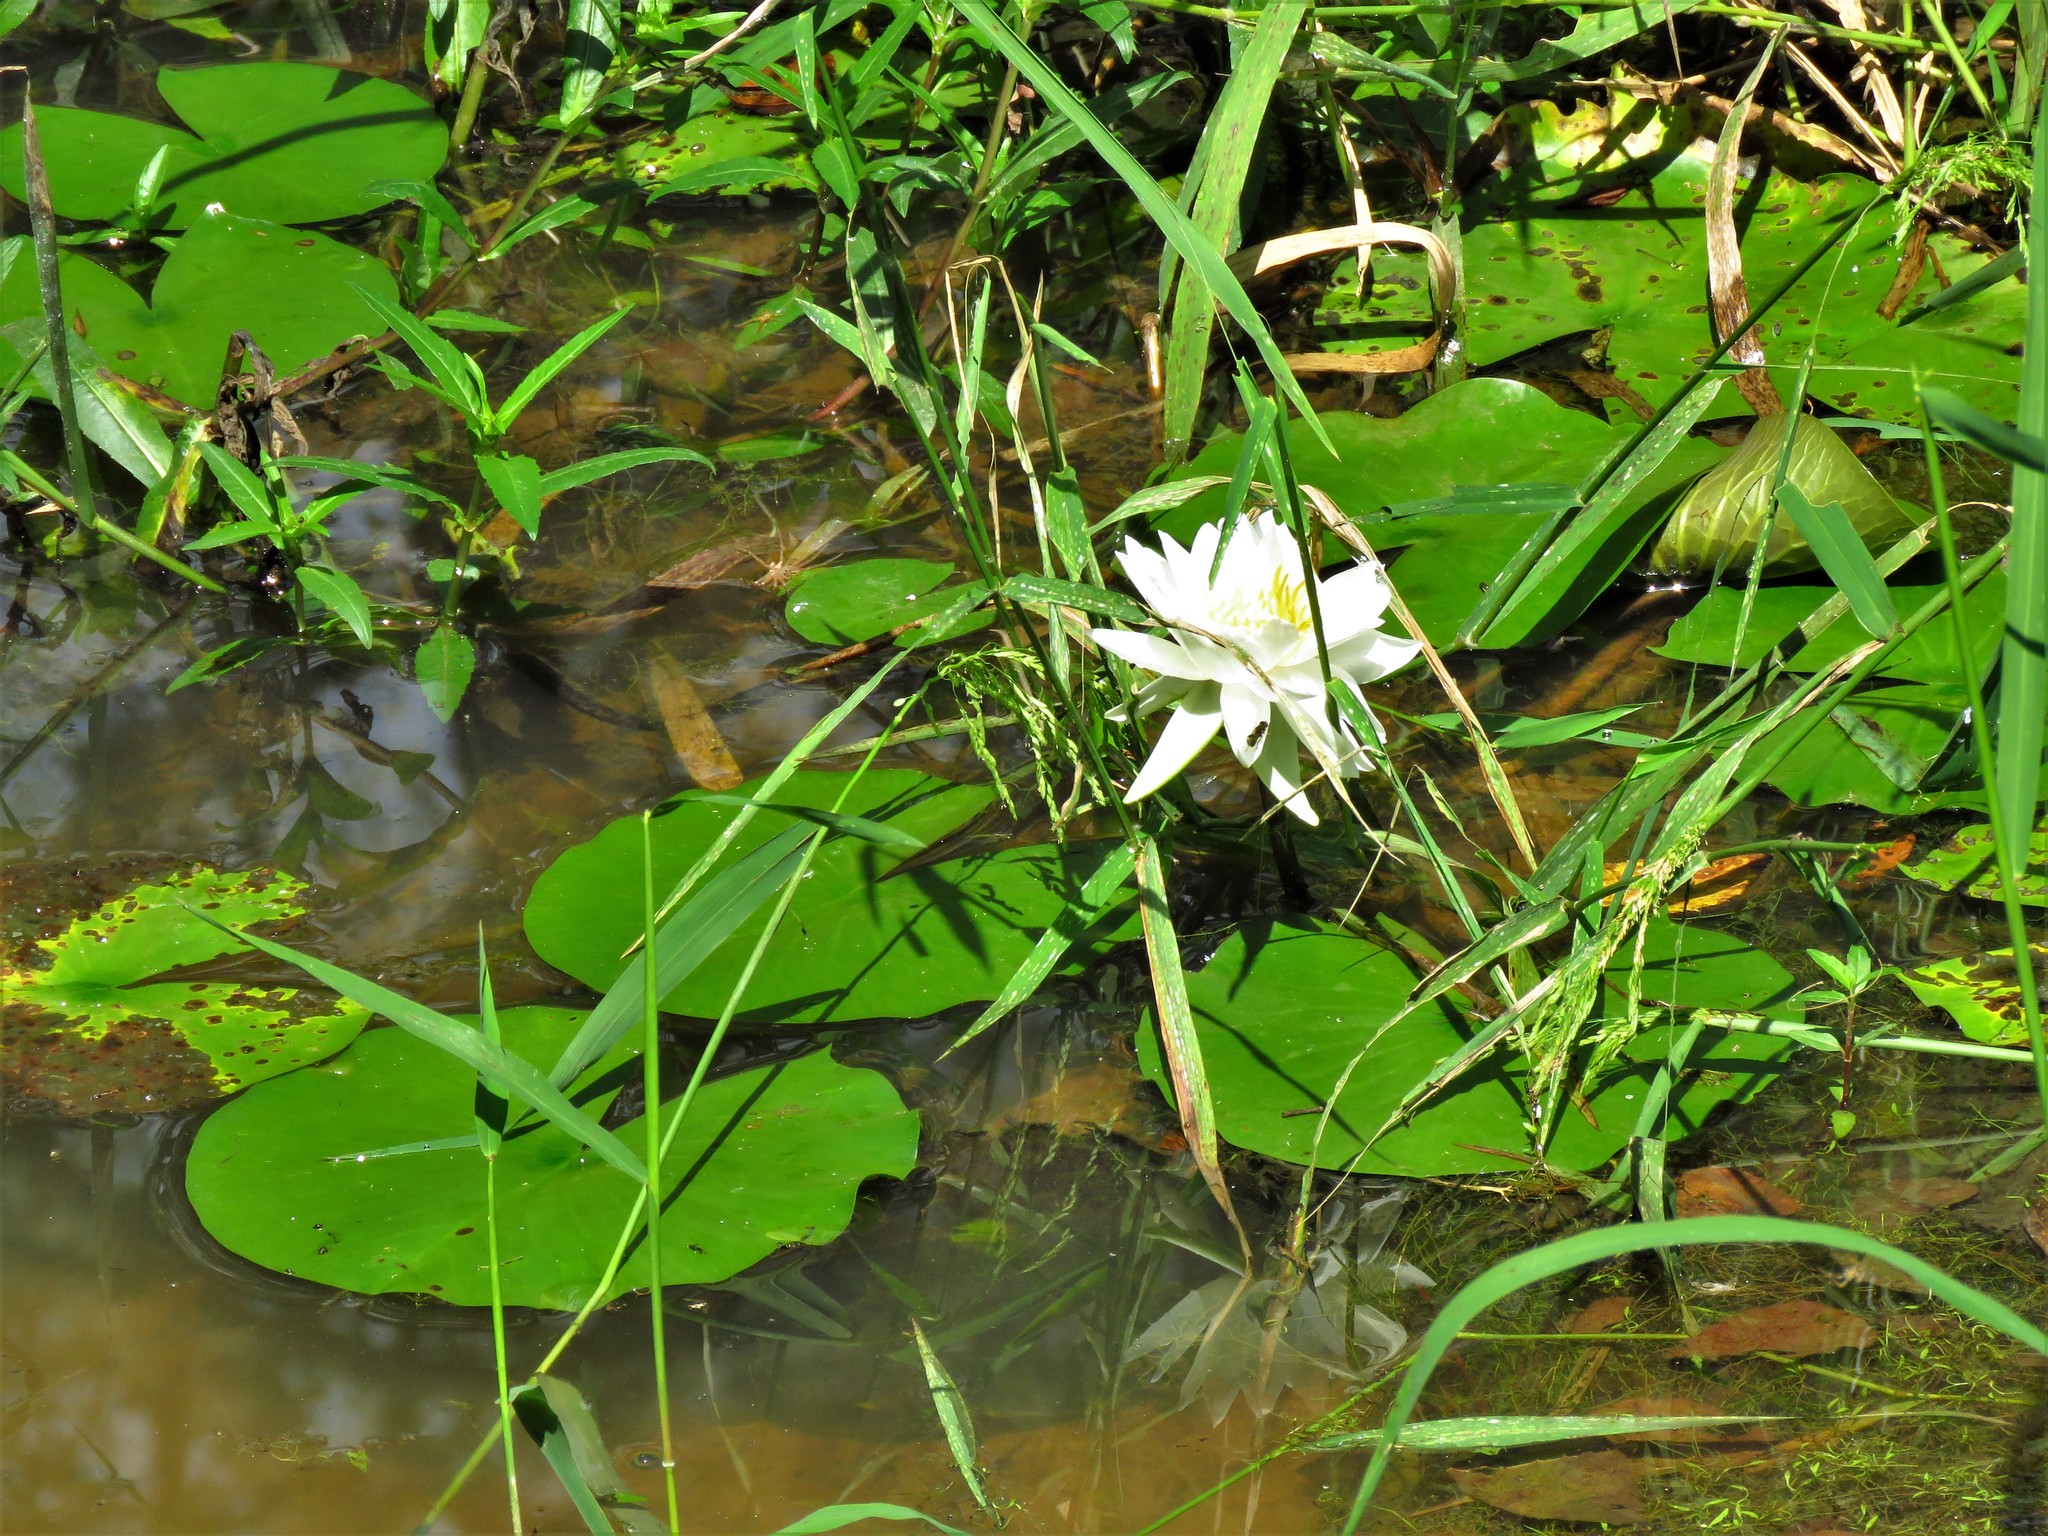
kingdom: Plantae
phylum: Tracheophyta
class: Magnoliopsida
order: Nymphaeales
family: Nymphaeaceae
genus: Nymphaea
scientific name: Nymphaea odorata
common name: Fragrant water-lily
